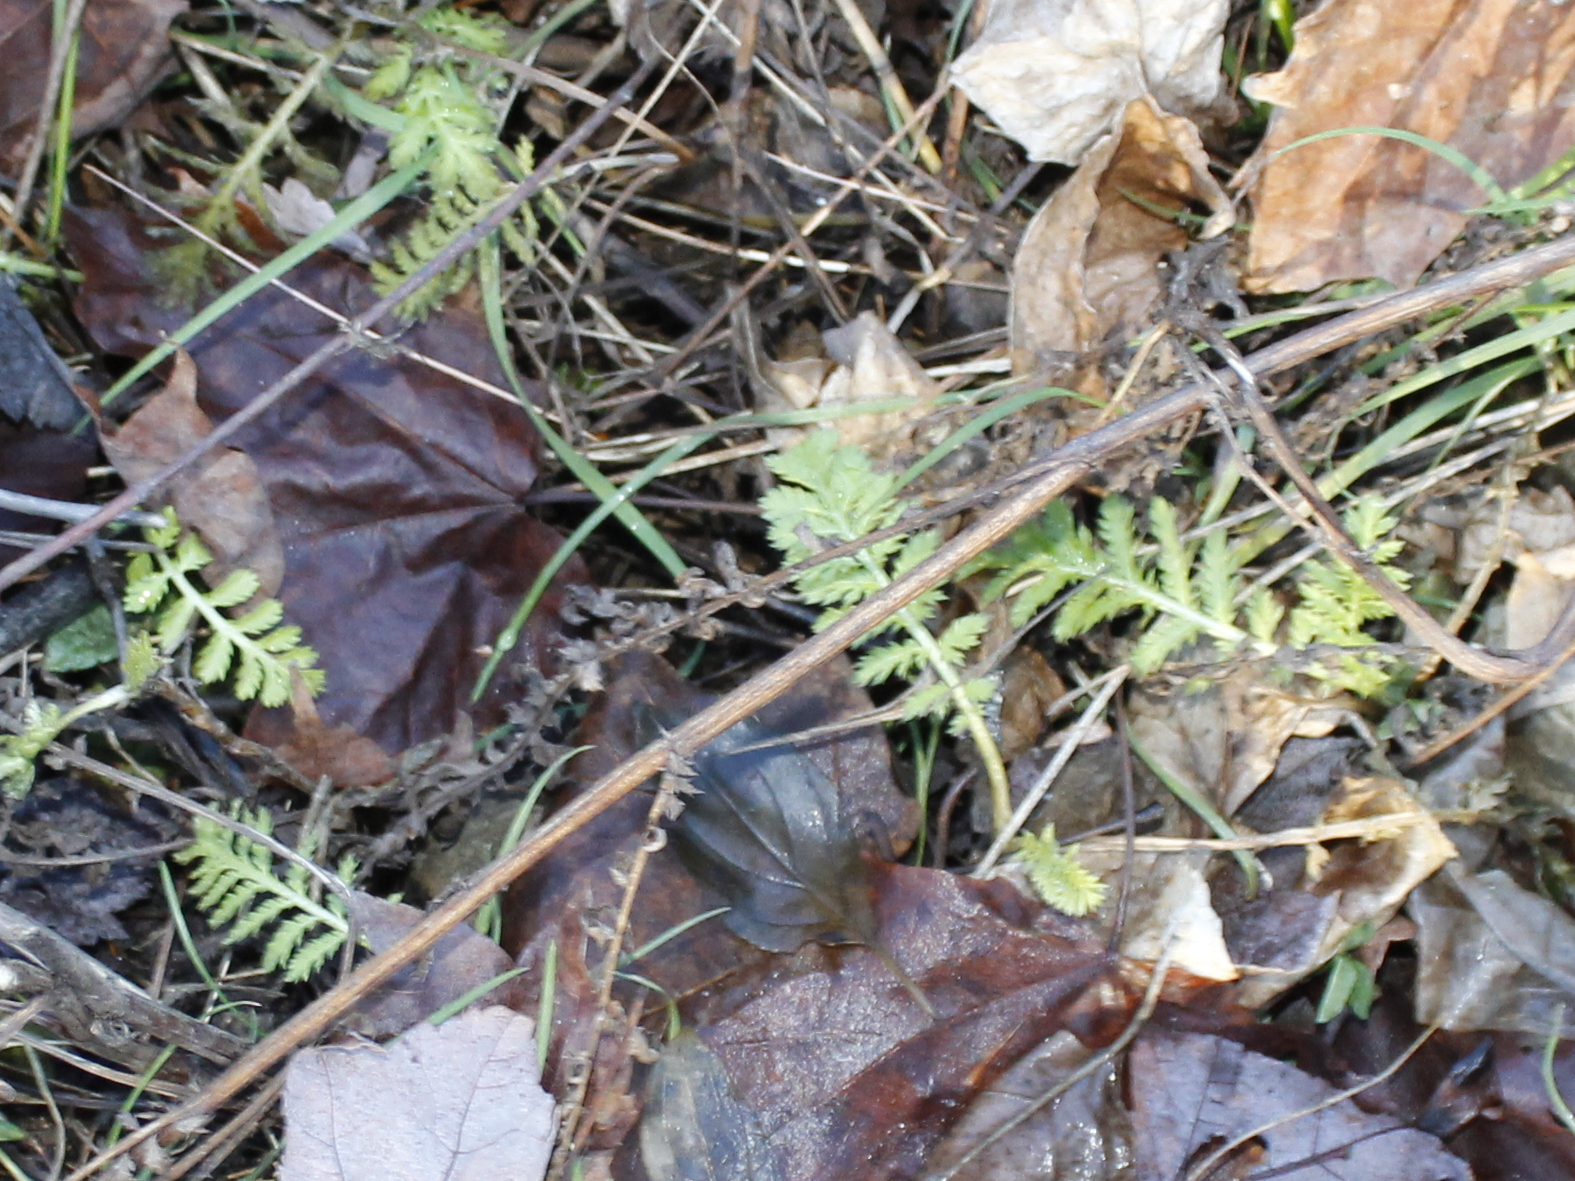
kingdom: Plantae
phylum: Tracheophyta
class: Magnoliopsida
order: Asterales
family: Asteraceae
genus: Tanacetum
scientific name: Tanacetum vulgare
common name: Common tansy
